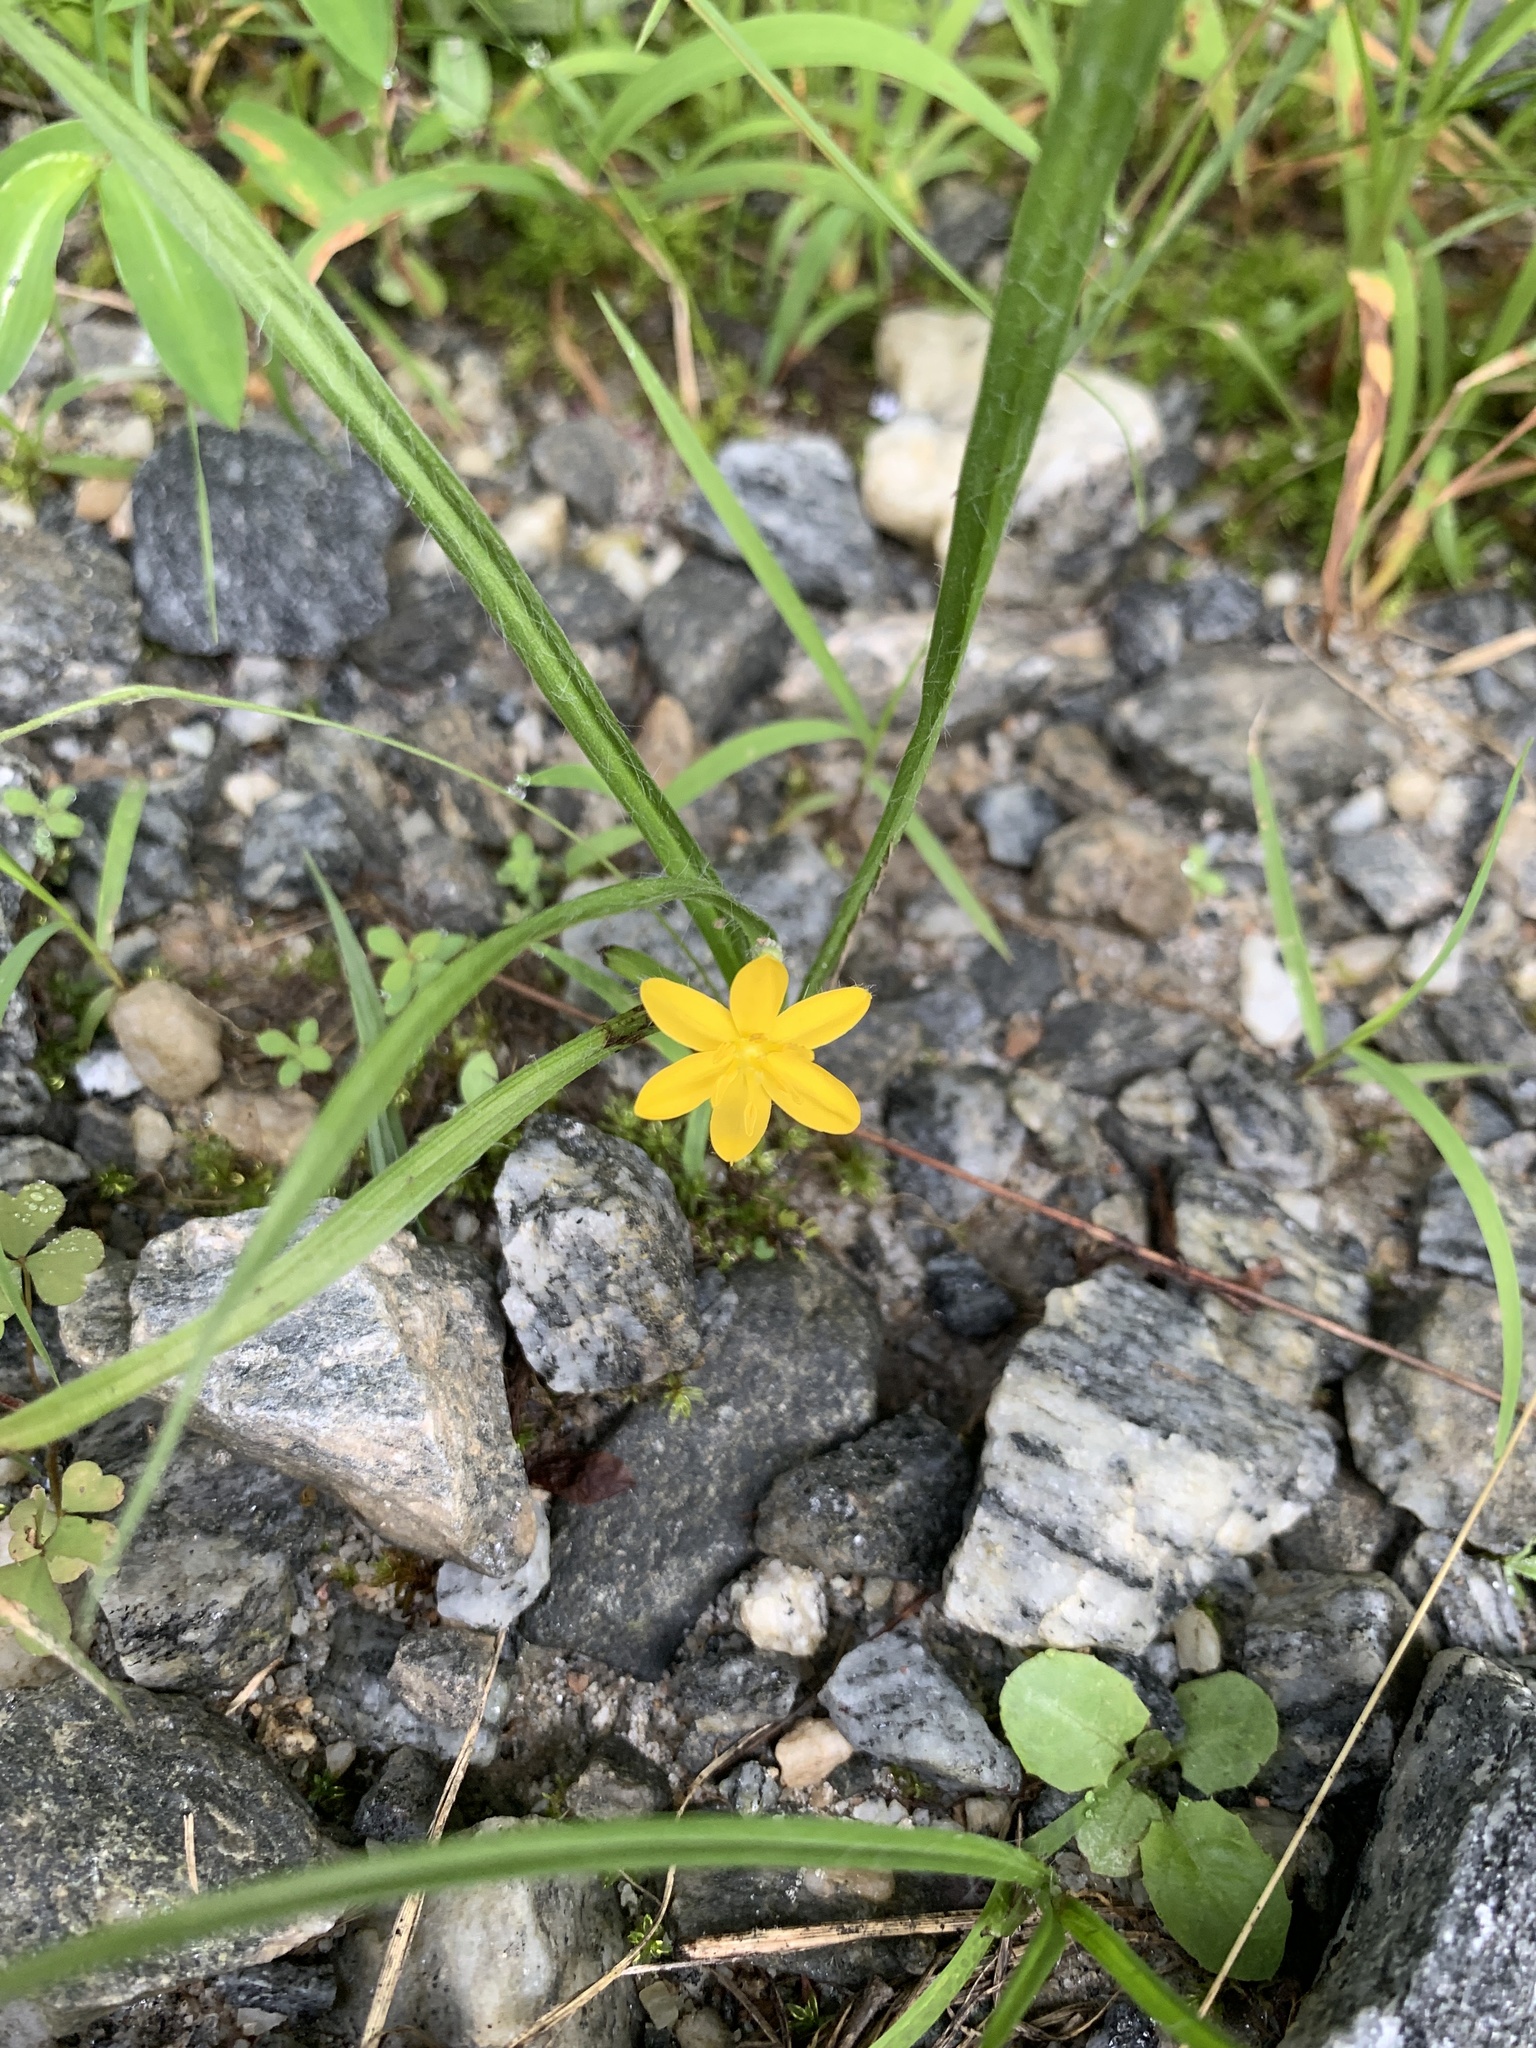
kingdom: Plantae
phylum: Tracheophyta
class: Liliopsida
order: Asparagales
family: Hypoxidaceae
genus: Hypoxis
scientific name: Hypoxis hirsuta
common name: Common goldstar
